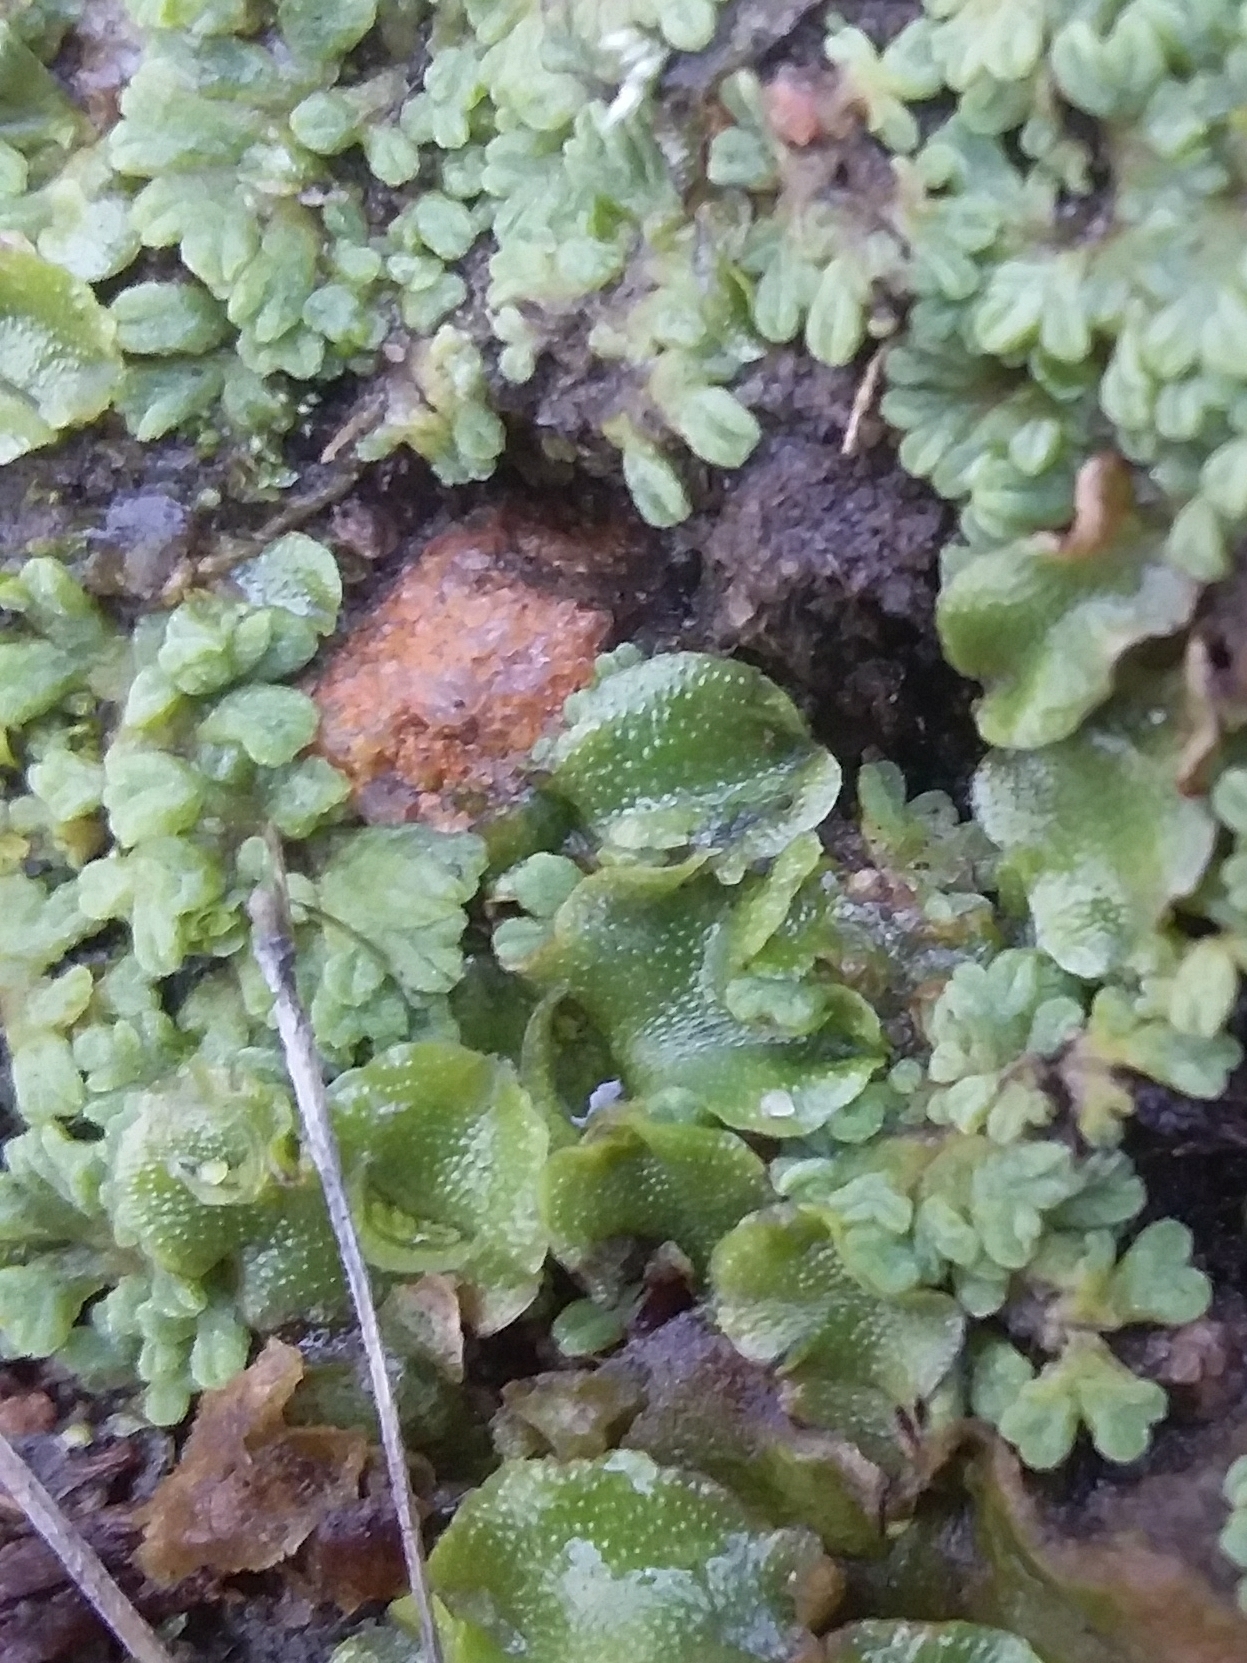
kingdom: Plantae
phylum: Marchantiophyta
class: Marchantiopsida
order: Marchantiales
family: Ricciaceae
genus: Riccia
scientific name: Riccia subbifurca
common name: Least crystalwort
